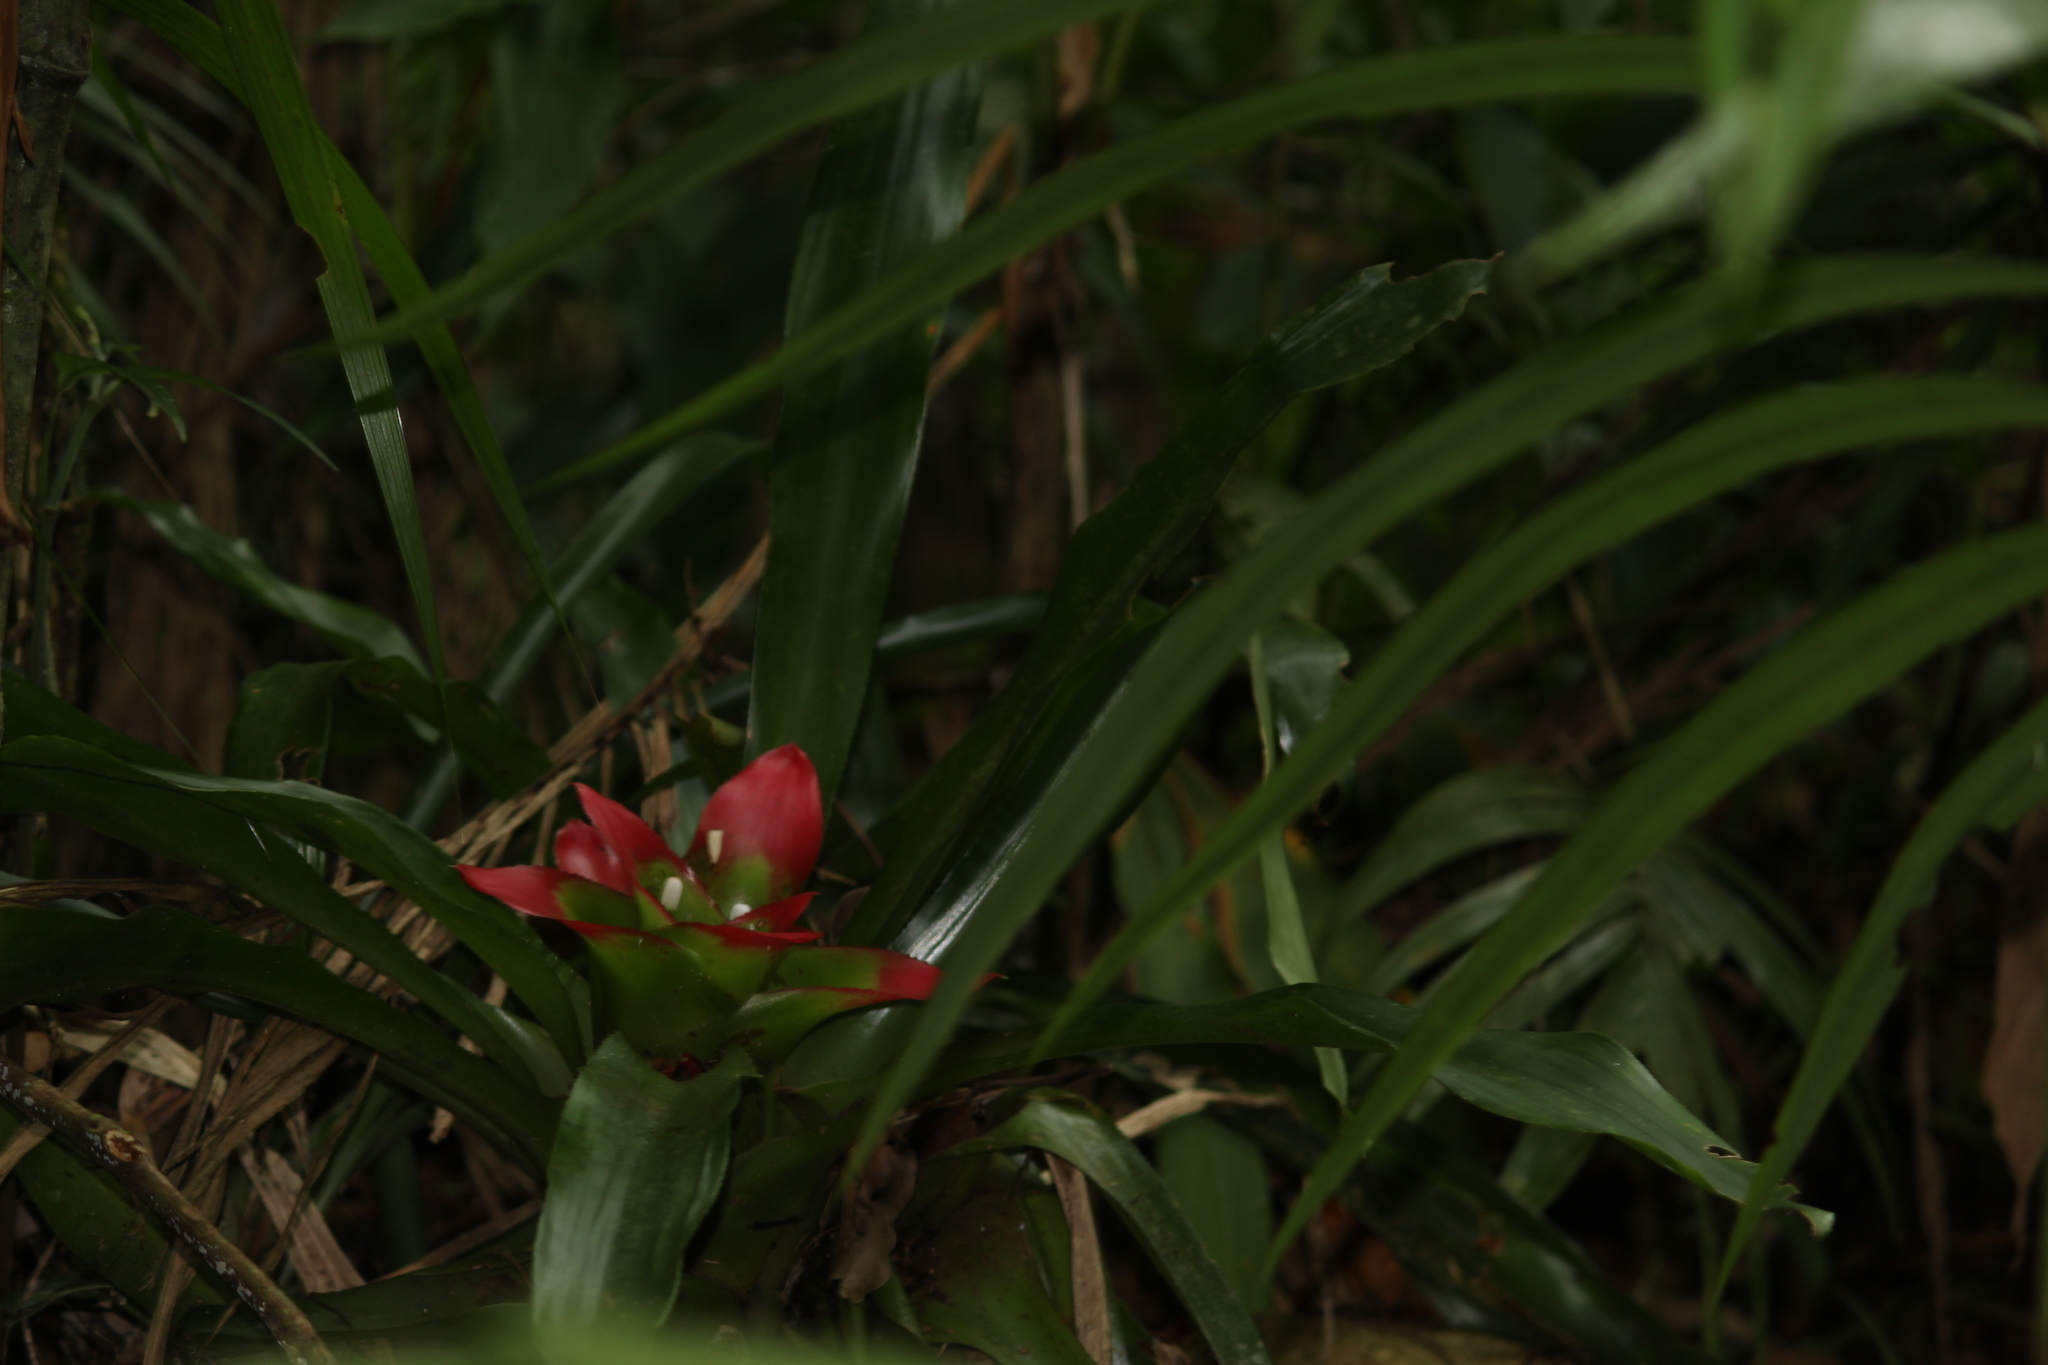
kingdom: Plantae
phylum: Tracheophyta
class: Liliopsida
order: Poales
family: Bromeliaceae
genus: Nidularium
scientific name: Nidularium innocentii
